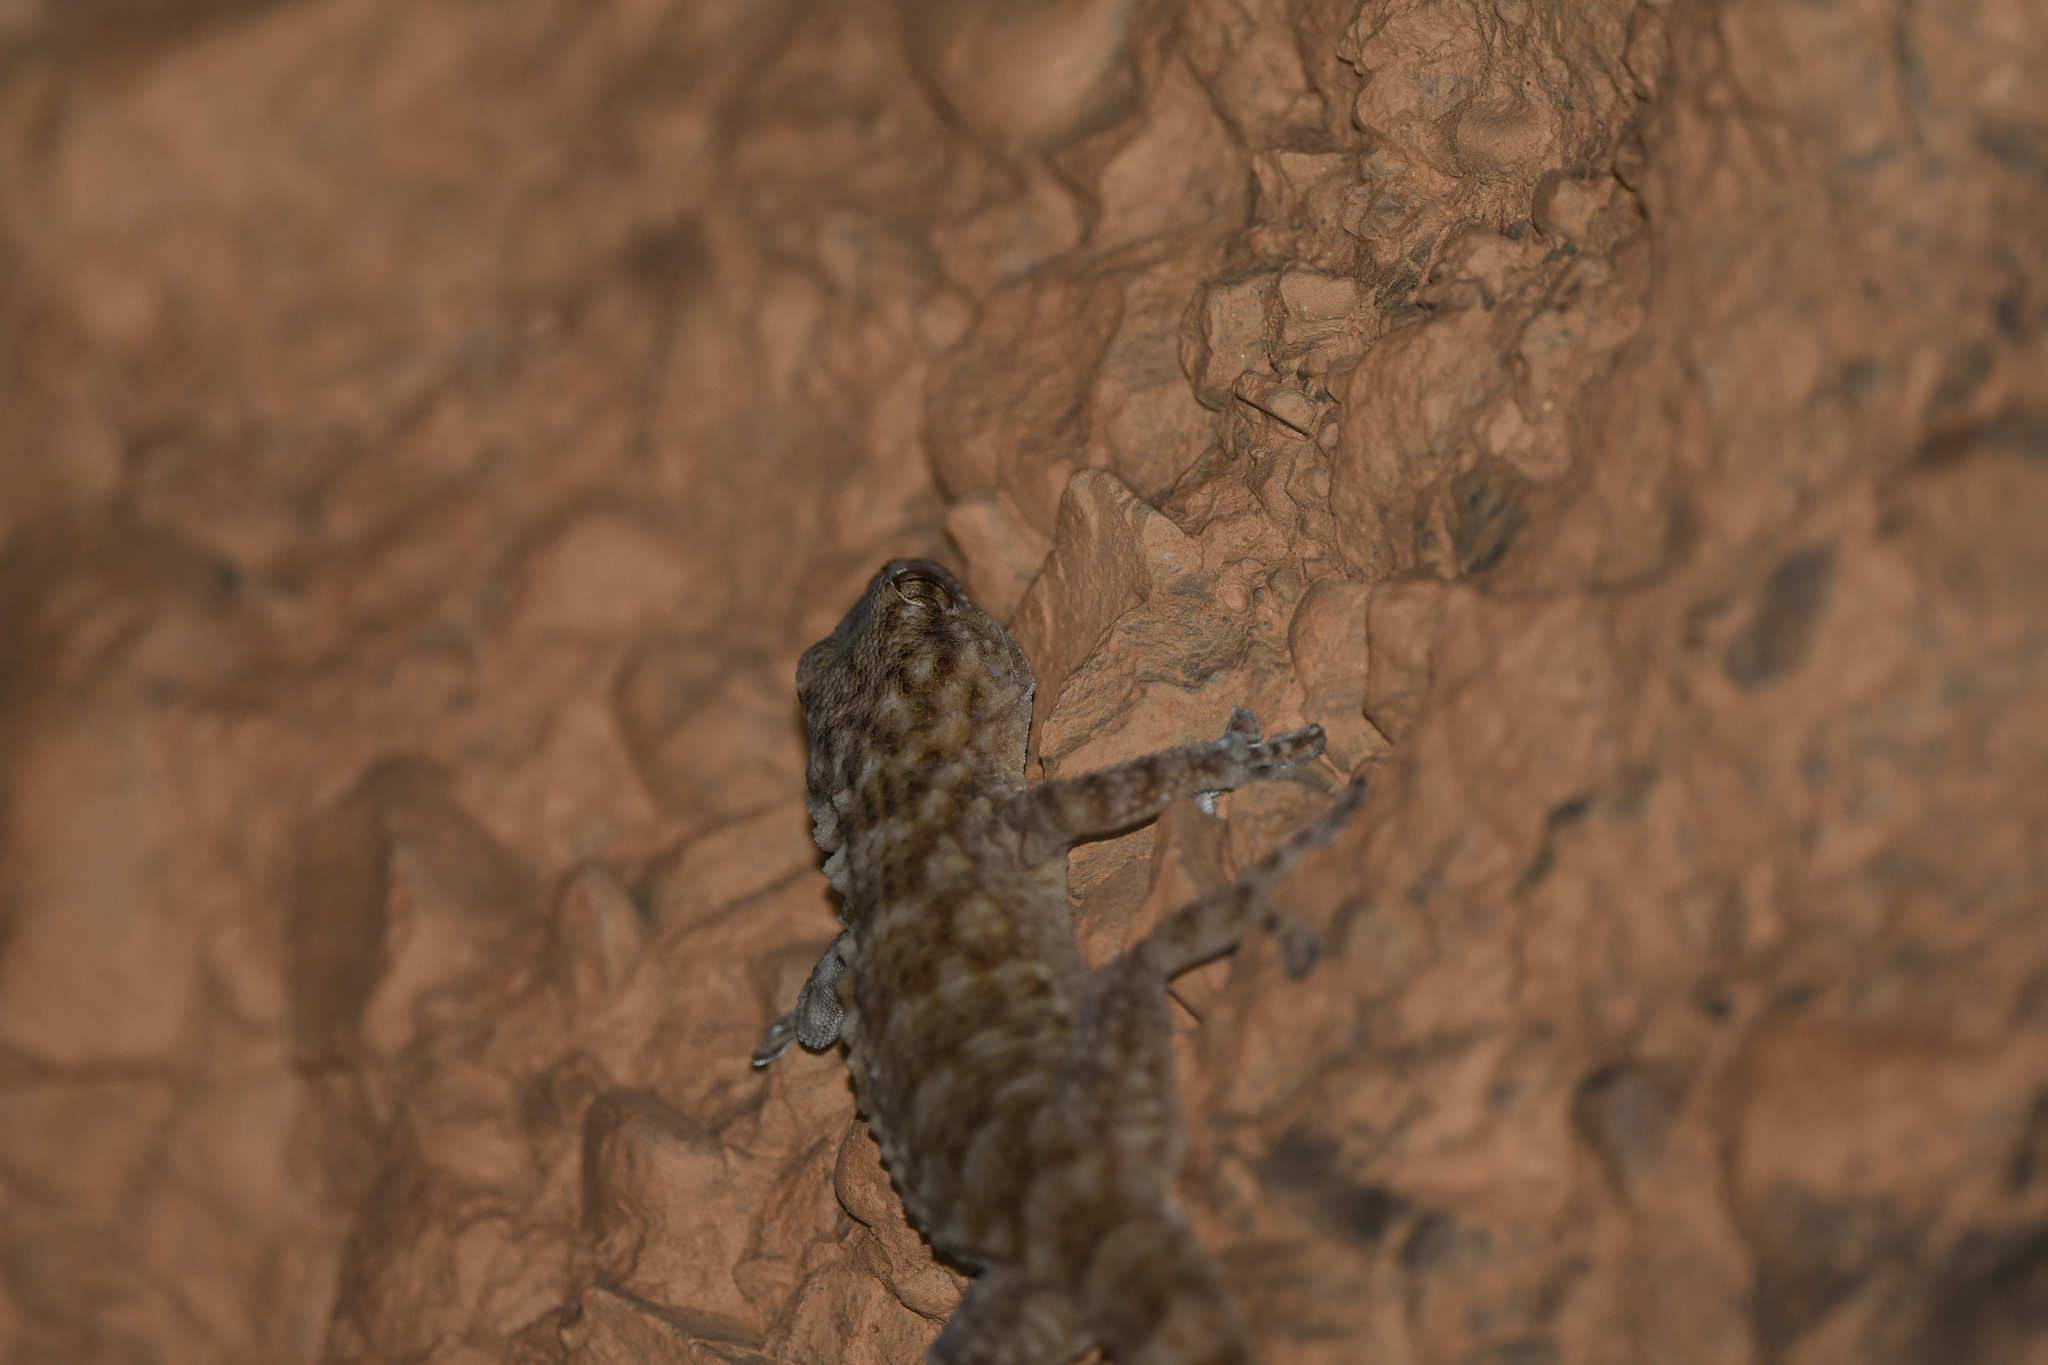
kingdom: Animalia
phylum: Chordata
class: Squamata
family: Phyllodactylidae
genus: Tarentola
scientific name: Tarentola boehmei
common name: Böhme's gecko
